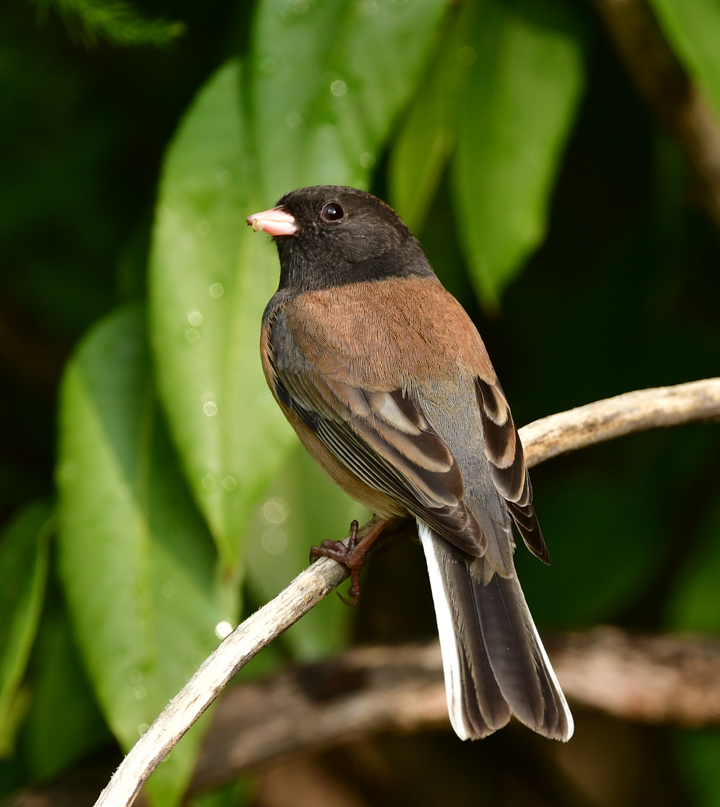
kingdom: Animalia
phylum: Chordata
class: Aves
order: Passeriformes
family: Passerellidae
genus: Junco
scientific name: Junco hyemalis
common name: Dark-eyed junco
